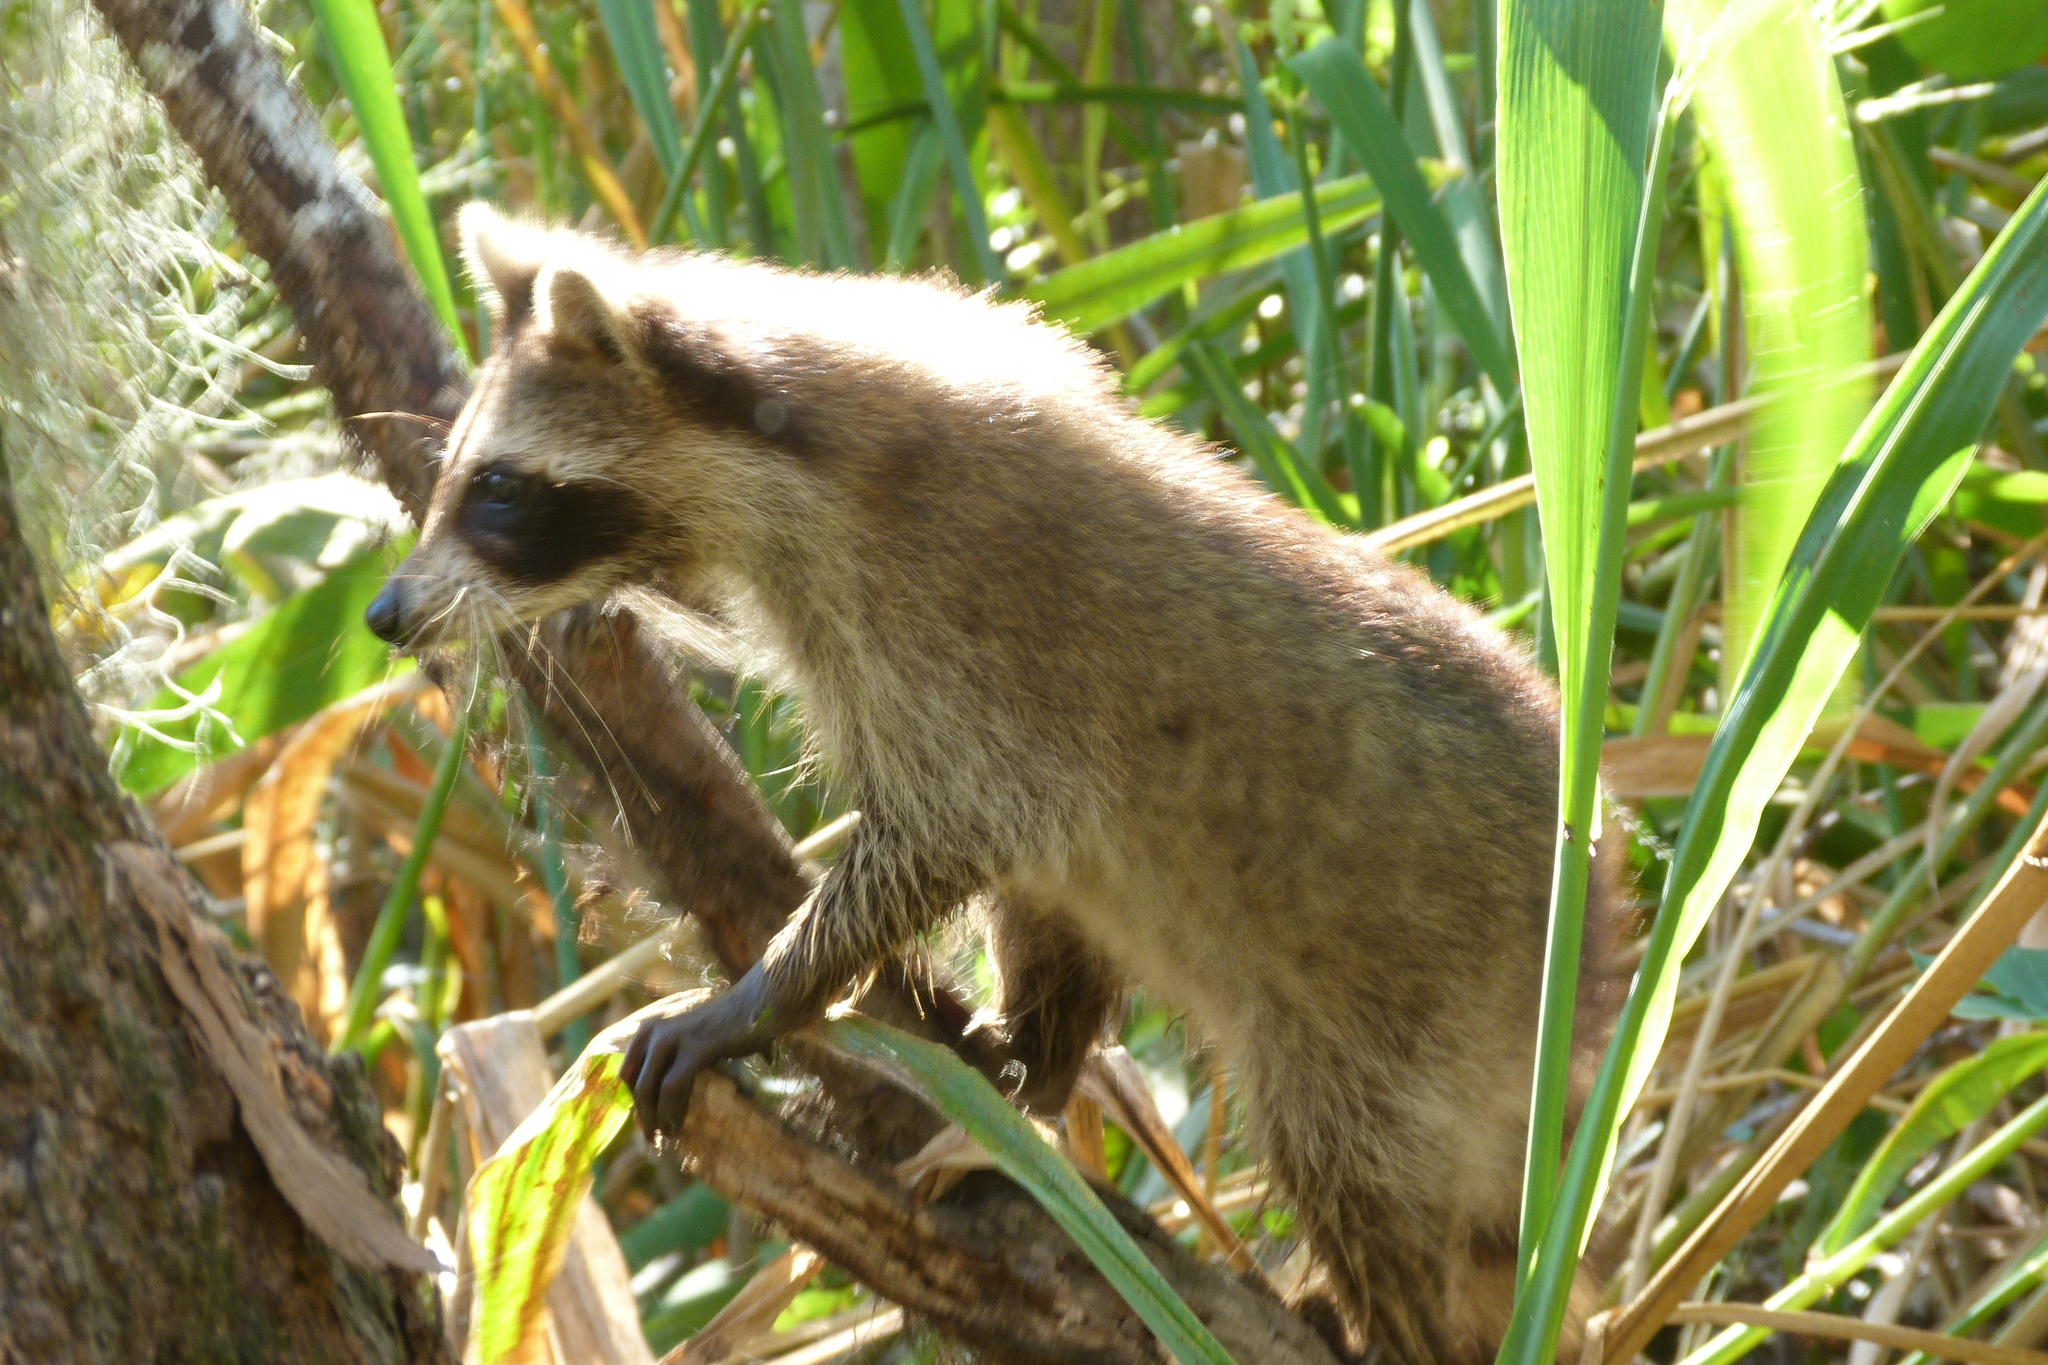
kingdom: Animalia
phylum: Chordata
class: Mammalia
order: Carnivora
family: Procyonidae
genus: Procyon
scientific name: Procyon lotor
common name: Raccoon
